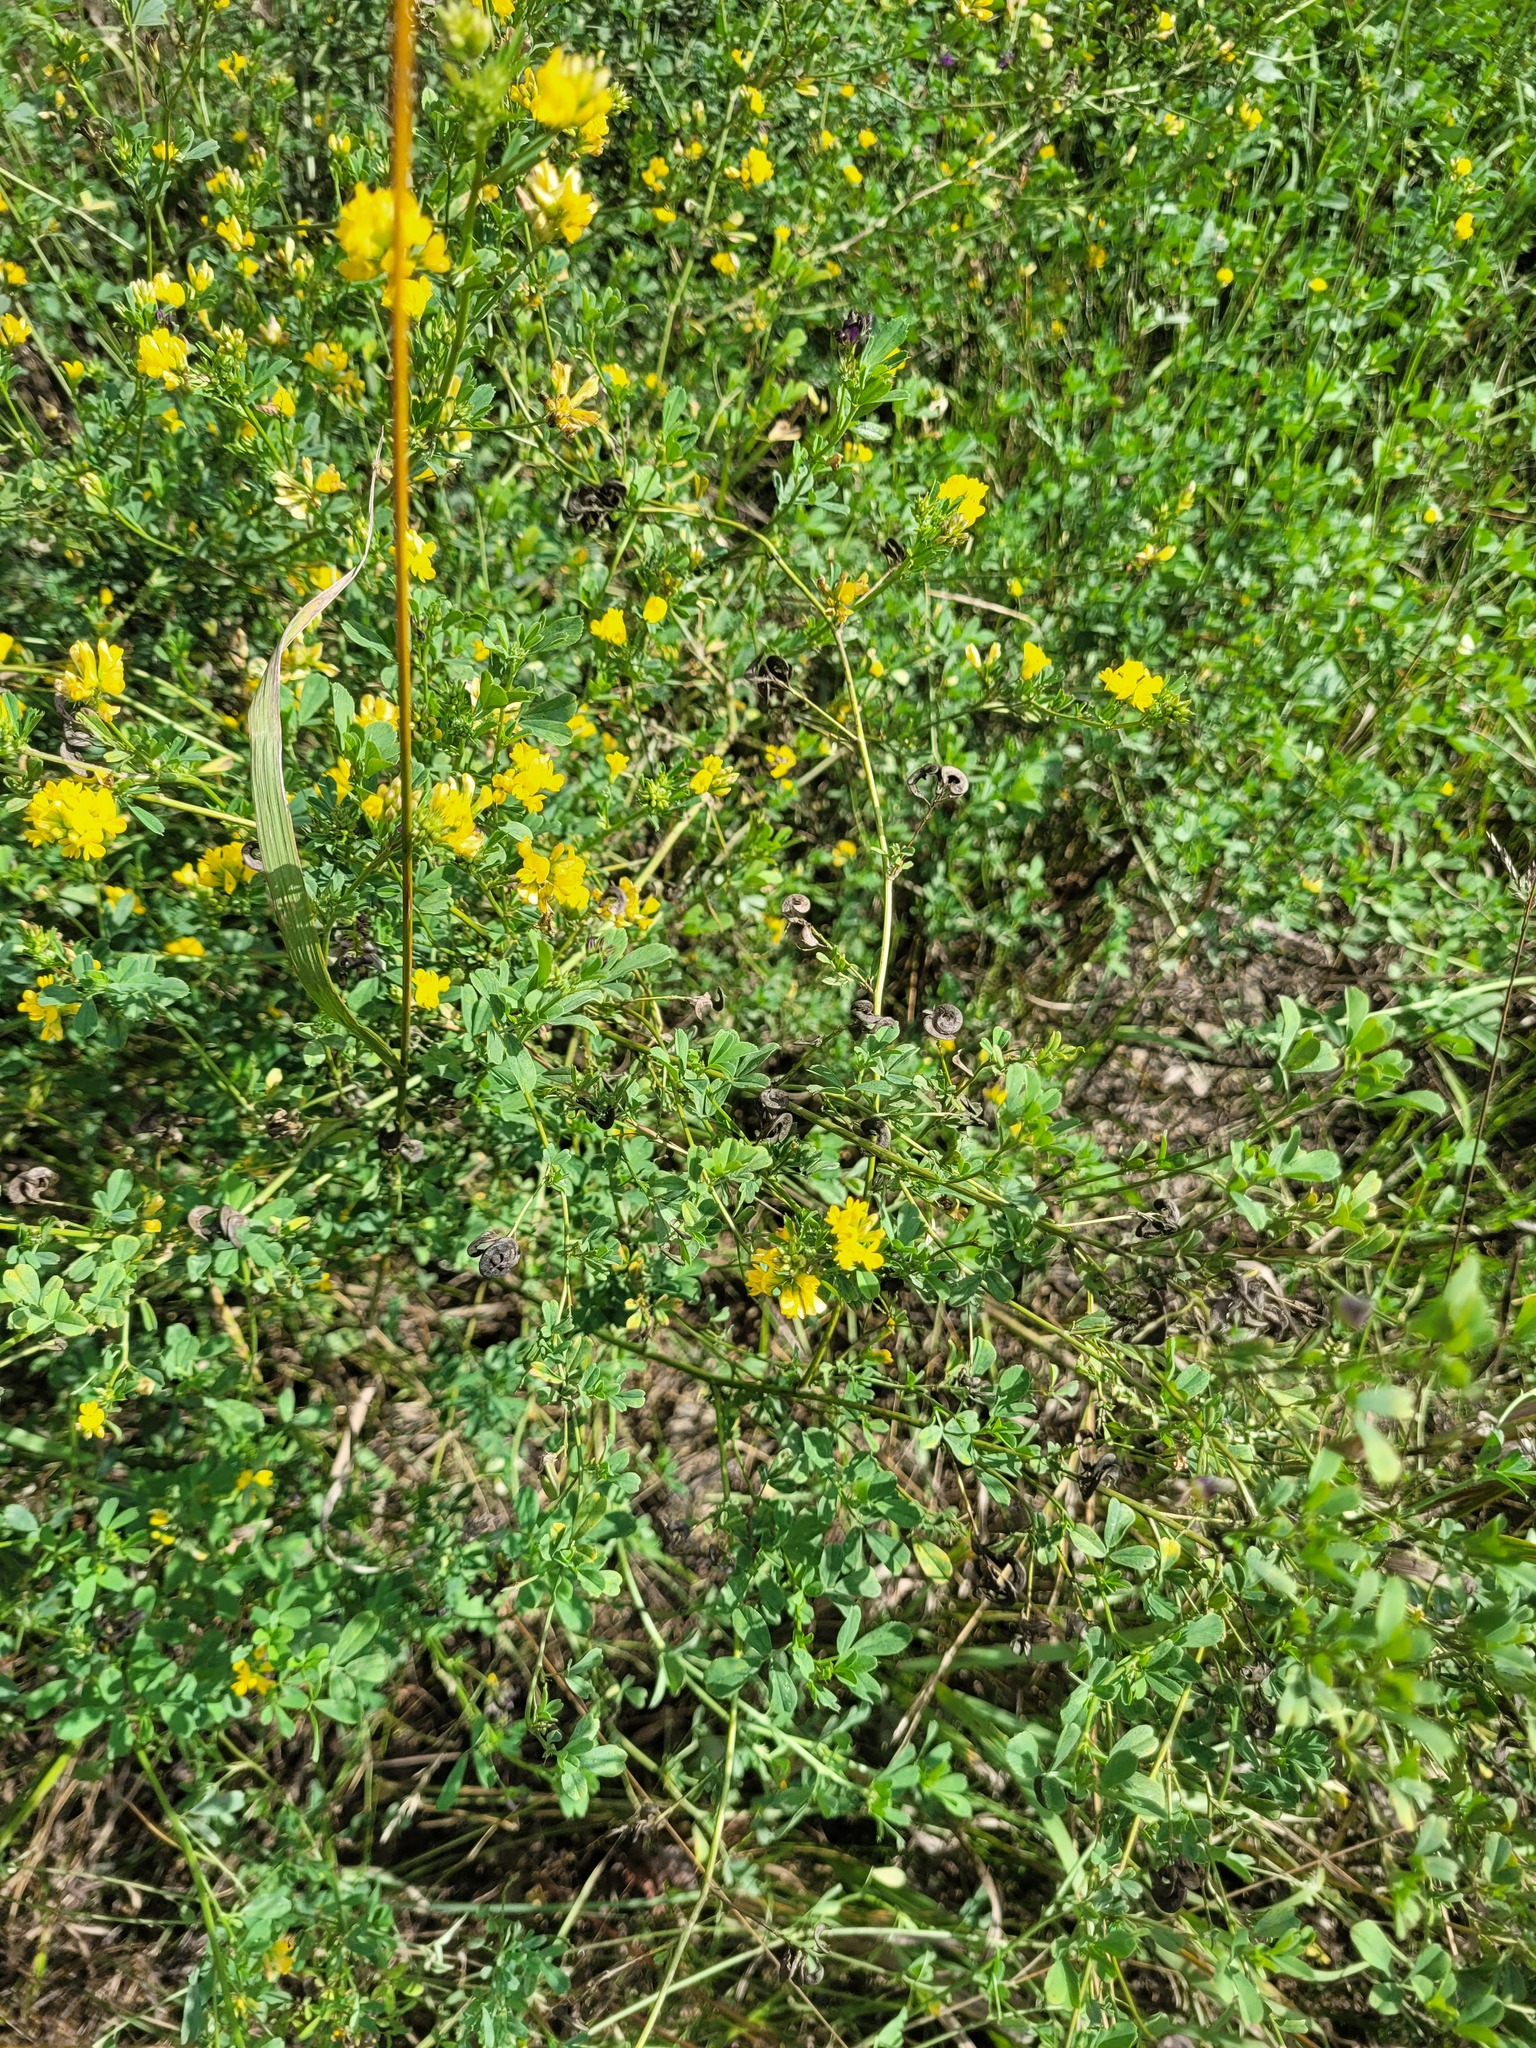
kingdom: Plantae
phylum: Tracheophyta
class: Magnoliopsida
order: Fabales
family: Fabaceae
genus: Medicago
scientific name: Medicago varia
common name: Sand lucerne
